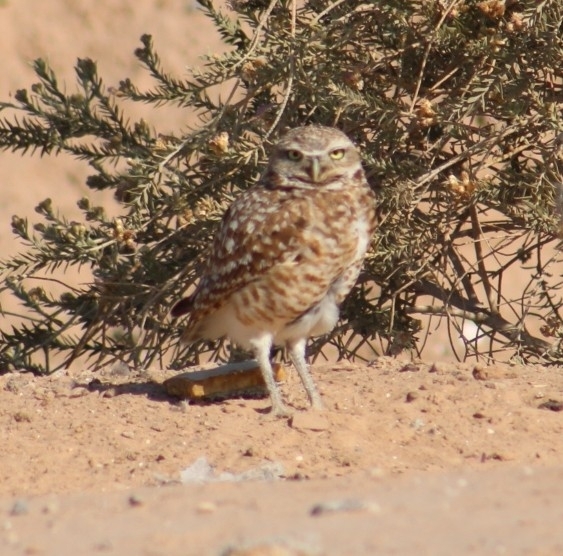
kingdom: Animalia
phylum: Chordata
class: Aves
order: Strigiformes
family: Strigidae
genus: Athene
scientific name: Athene cunicularia
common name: Burrowing owl
